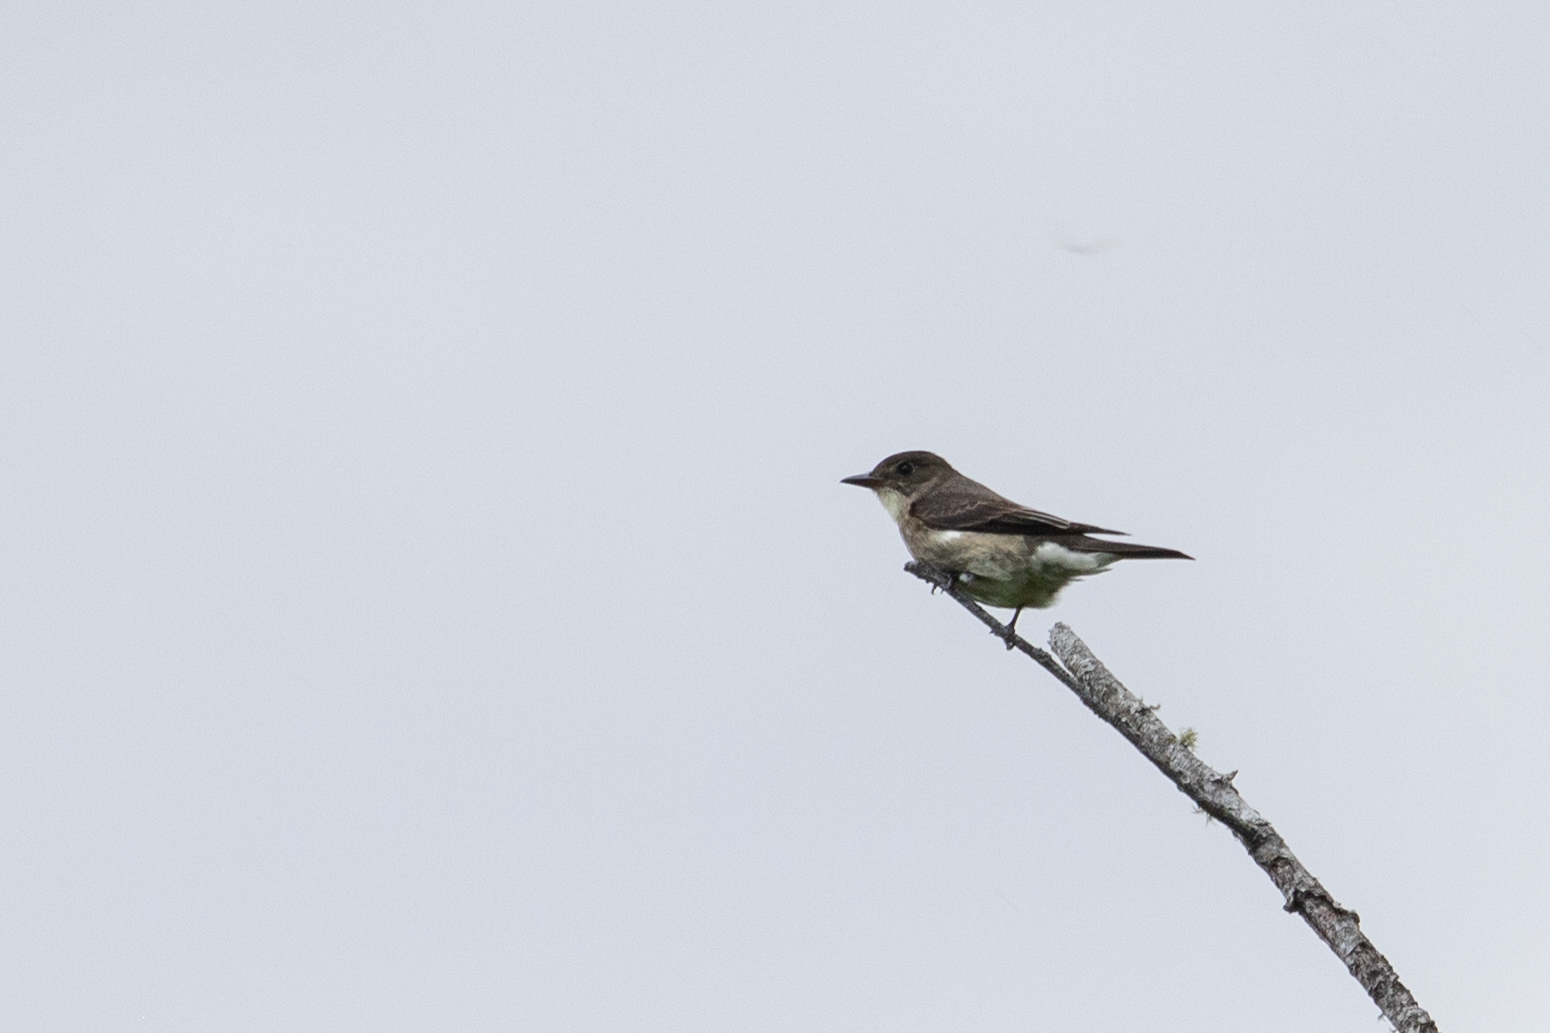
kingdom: Animalia
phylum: Chordata
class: Aves
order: Passeriformes
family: Tyrannidae
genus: Contopus
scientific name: Contopus cooperi
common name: Olive-sided flycatcher
